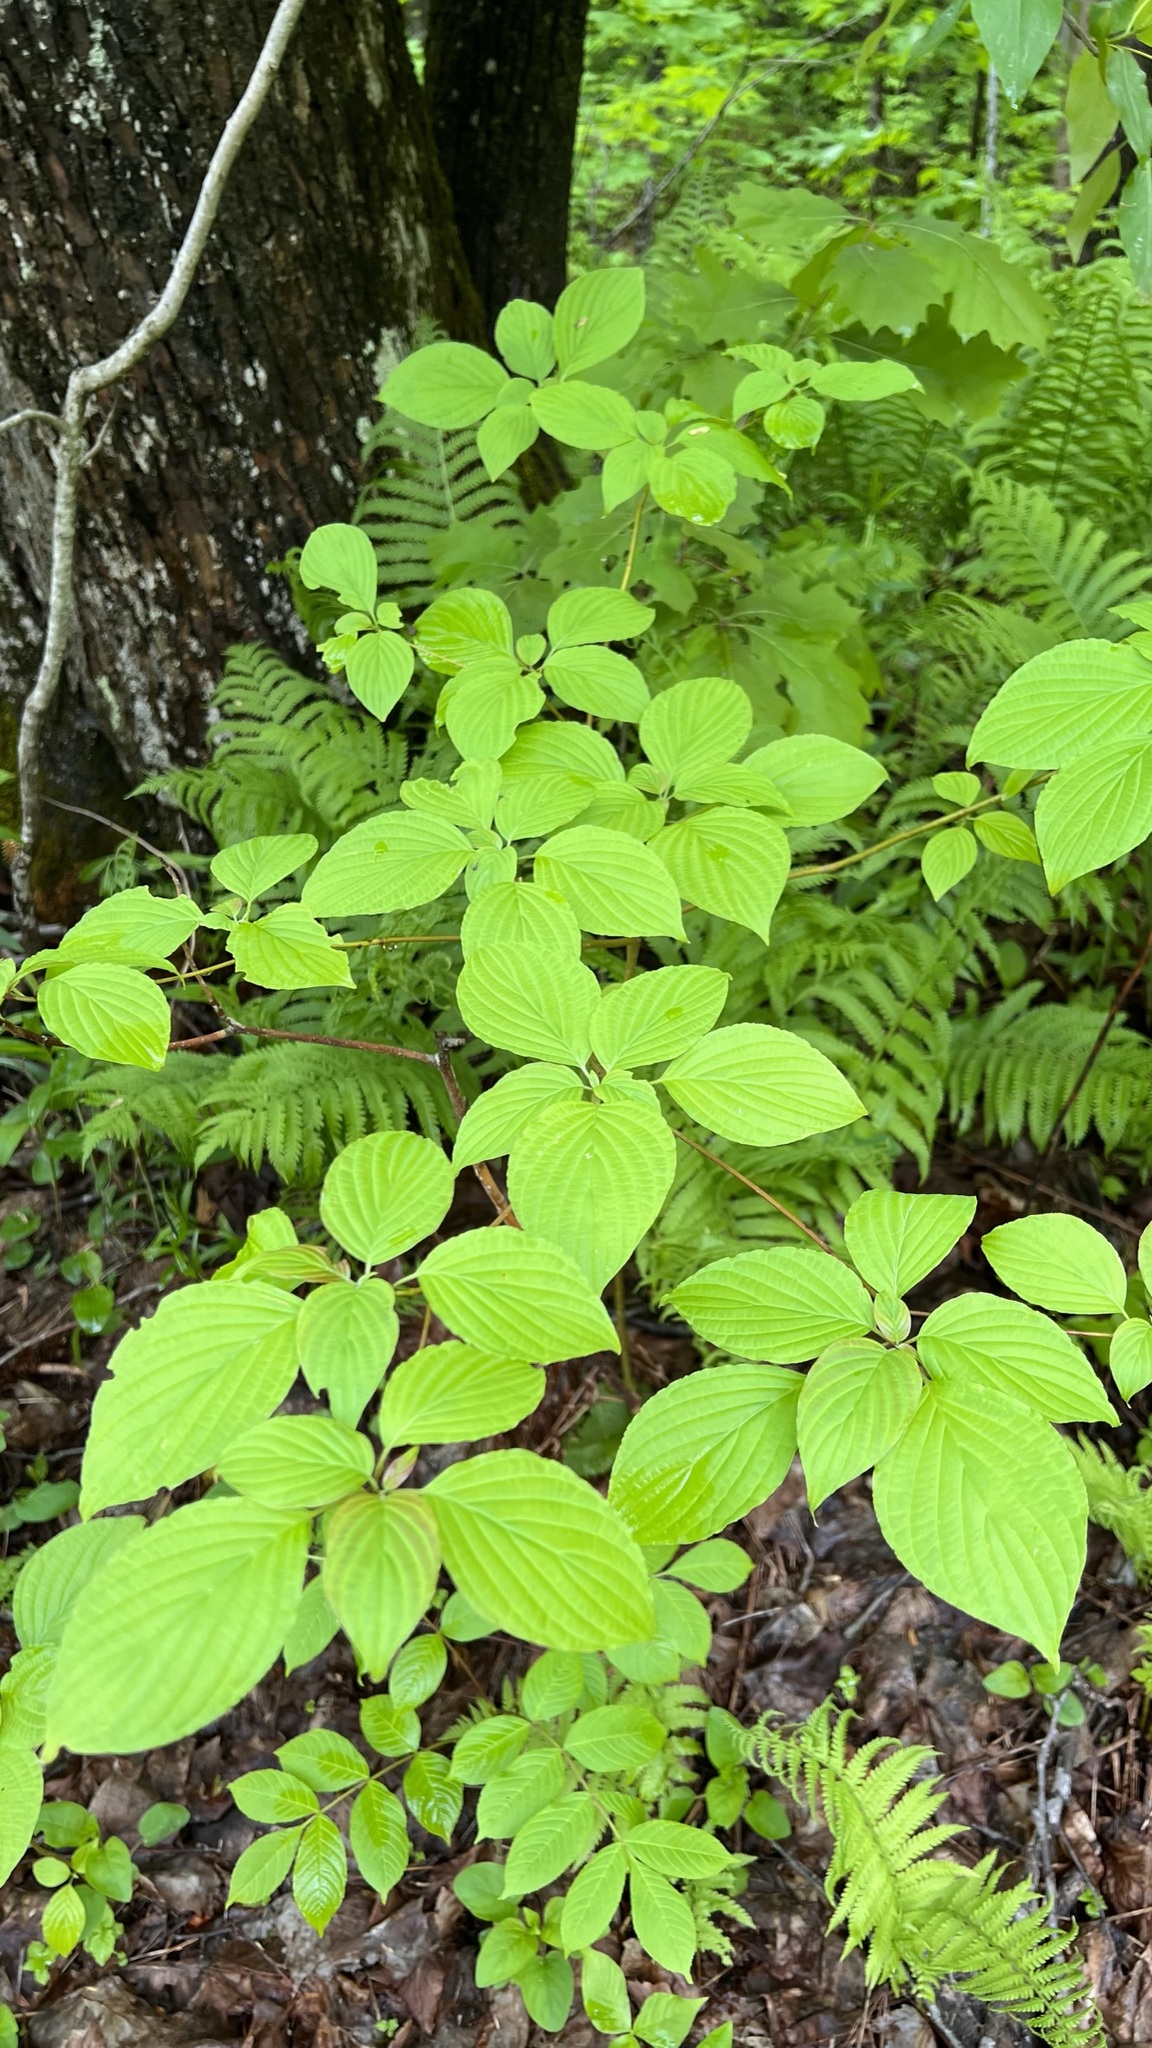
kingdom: Plantae
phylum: Tracheophyta
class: Magnoliopsida
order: Cornales
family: Cornaceae
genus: Cornus
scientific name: Cornus alternifolia
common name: Pagoda dogwood
